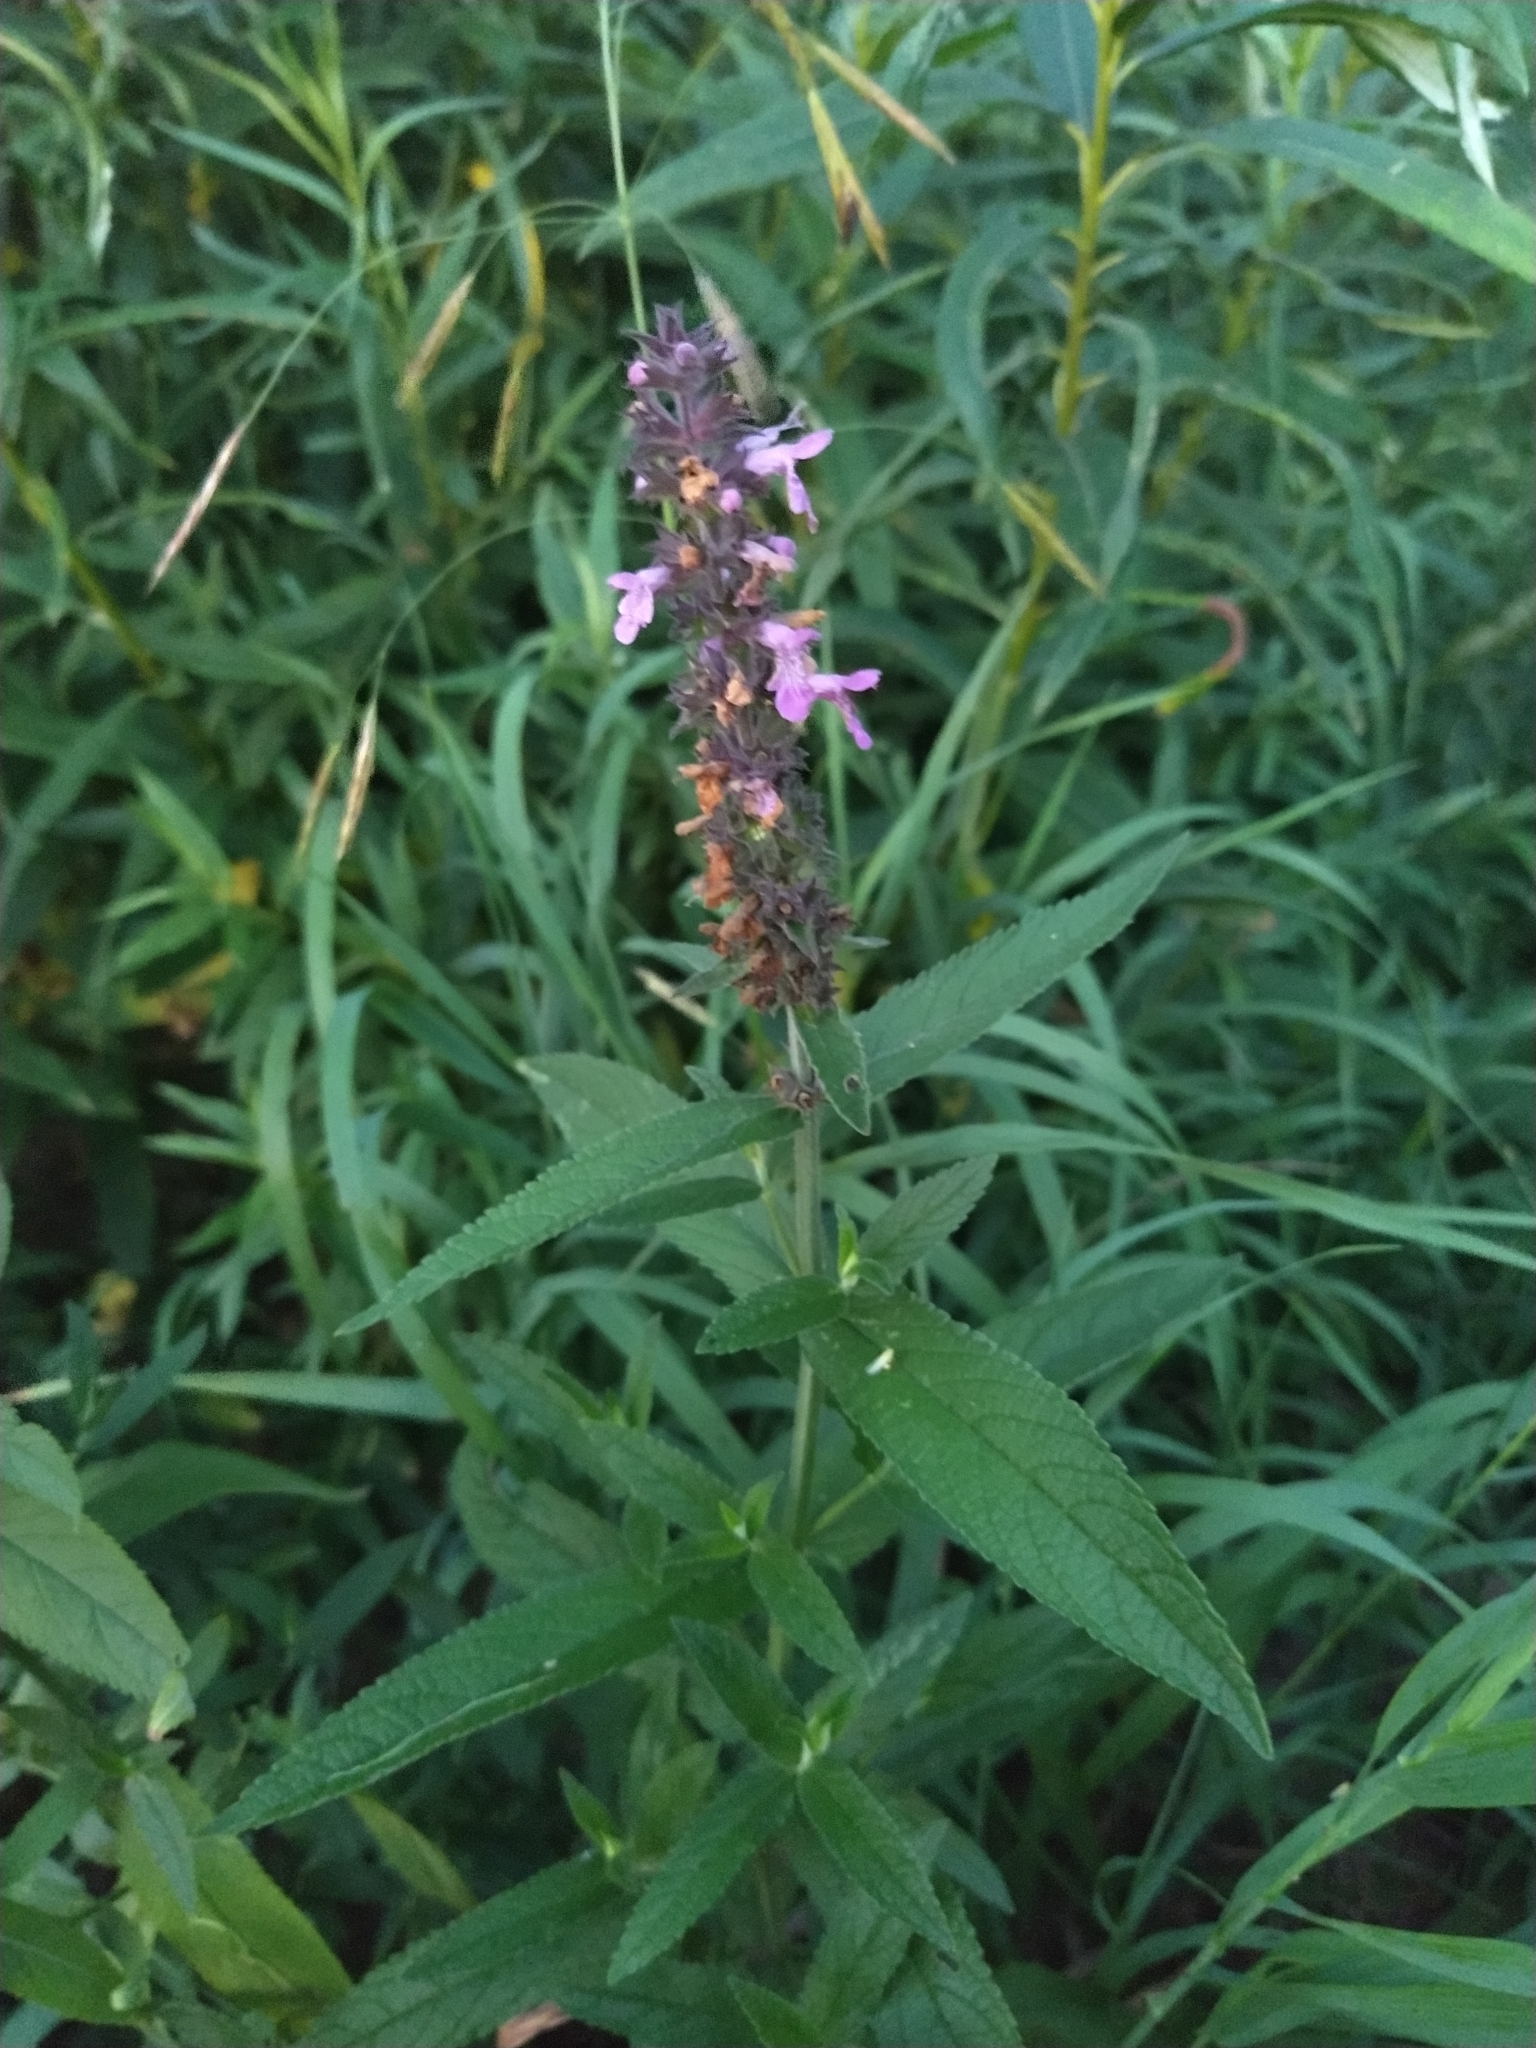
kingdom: Plantae
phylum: Tracheophyta
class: Magnoliopsida
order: Lamiales
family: Lamiaceae
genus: Stachys
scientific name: Stachys palustris
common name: Marsh woundwort
